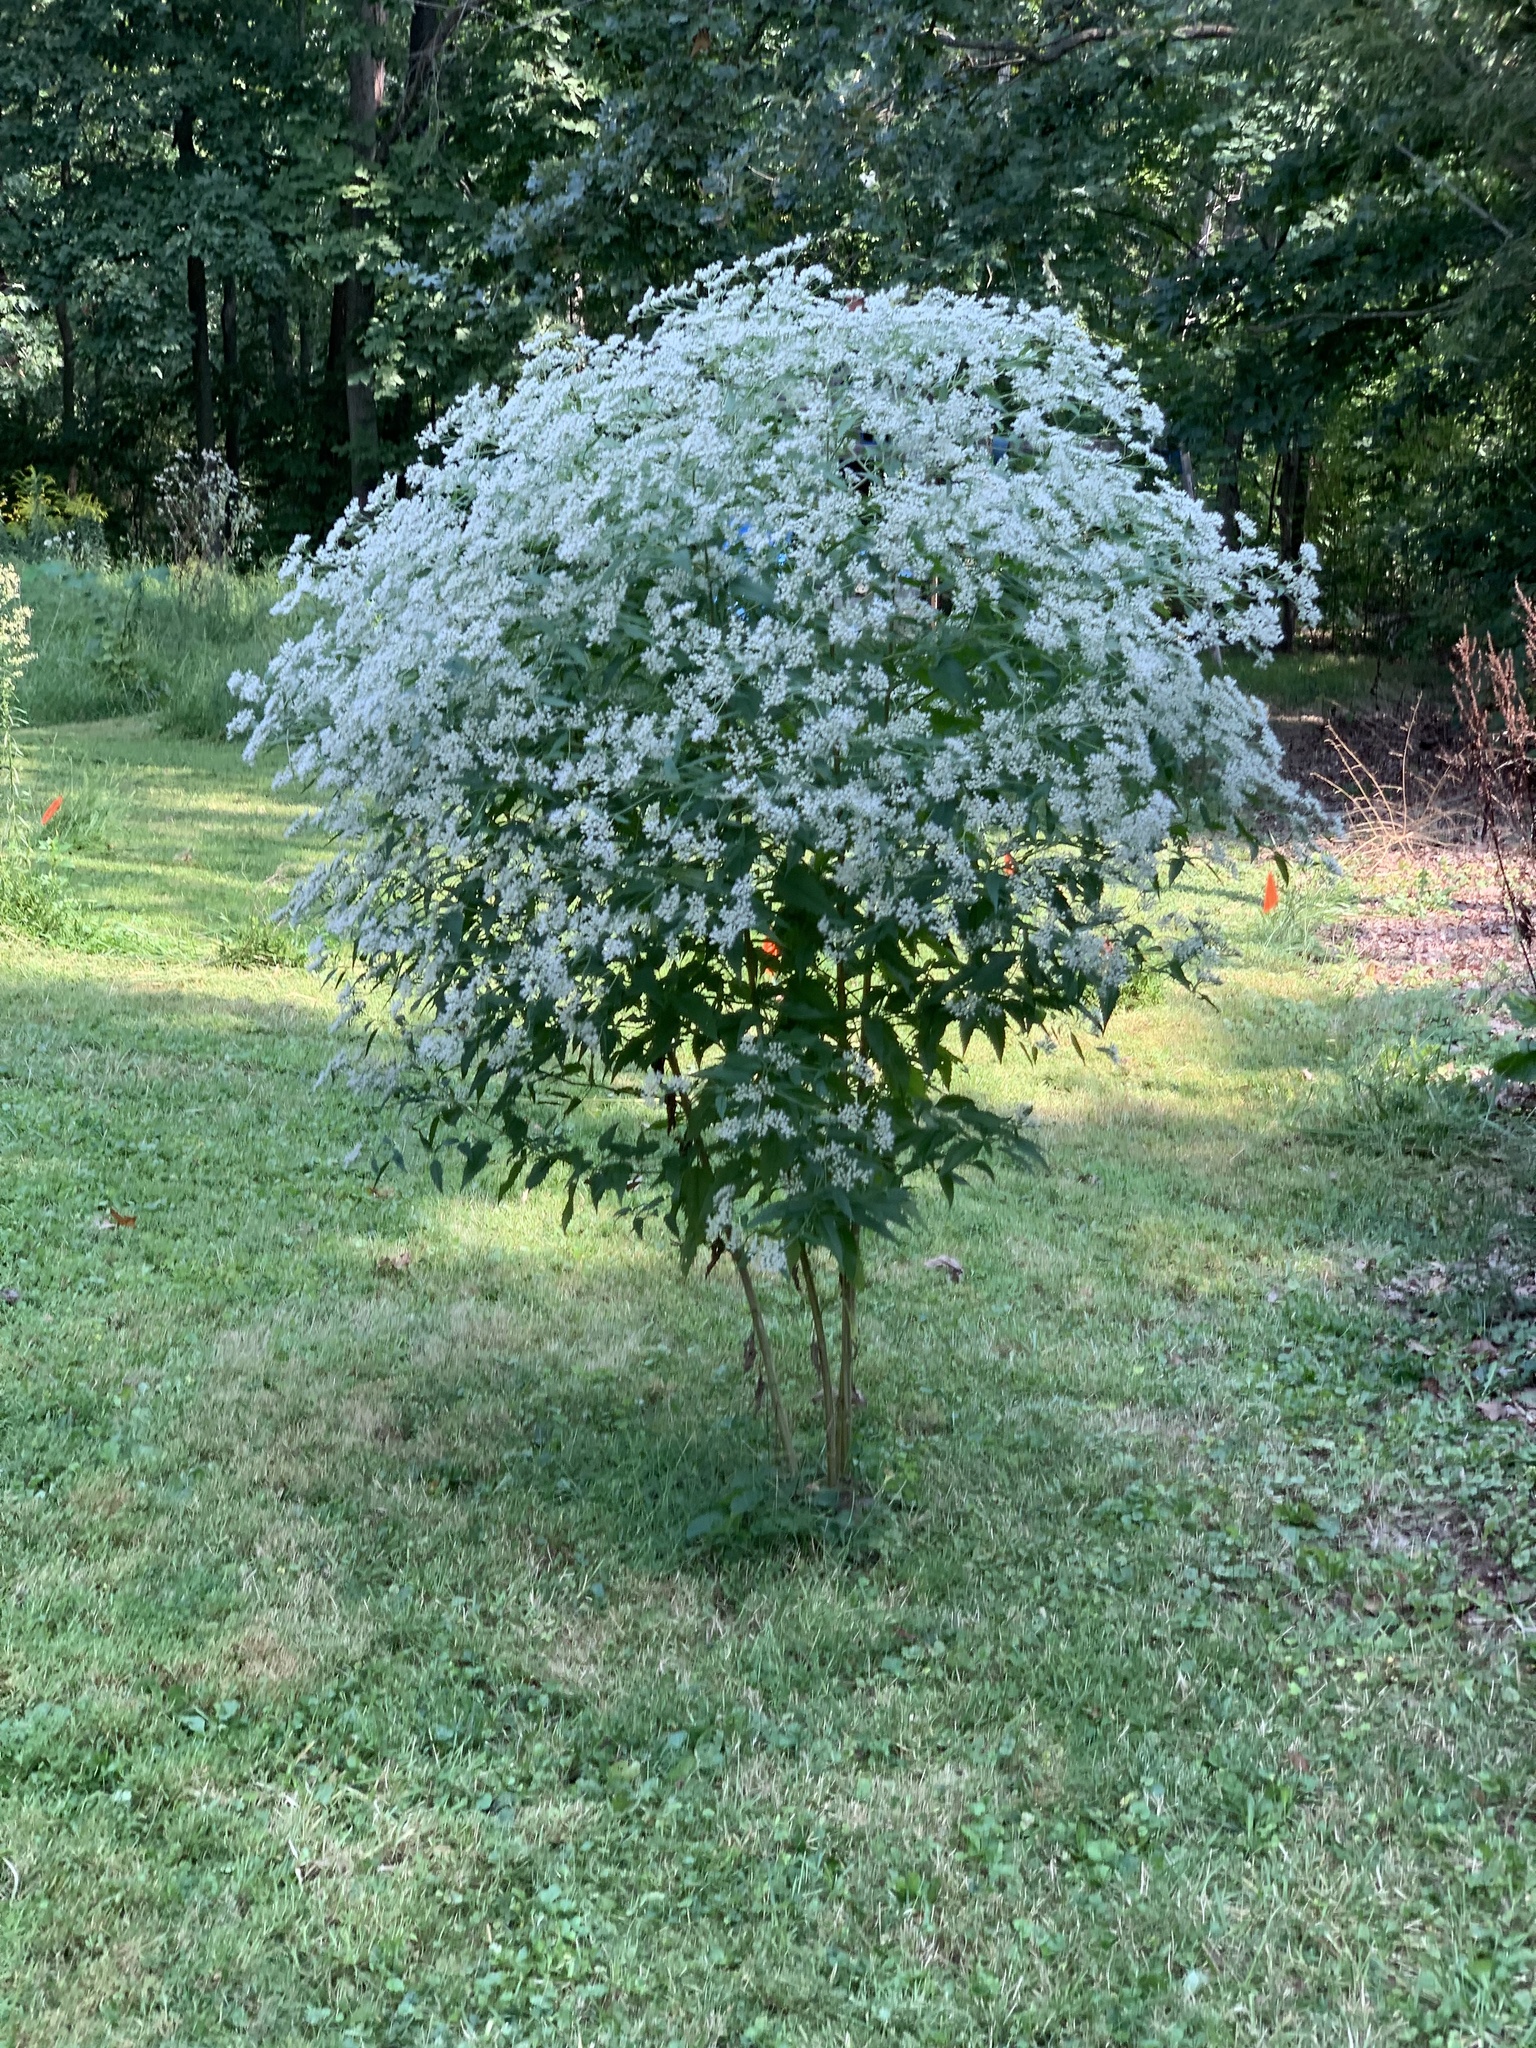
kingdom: Plantae
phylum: Tracheophyta
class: Magnoliopsida
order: Asterales
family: Asteraceae
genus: Eupatorium
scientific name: Eupatorium serotinum
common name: Late boneset
